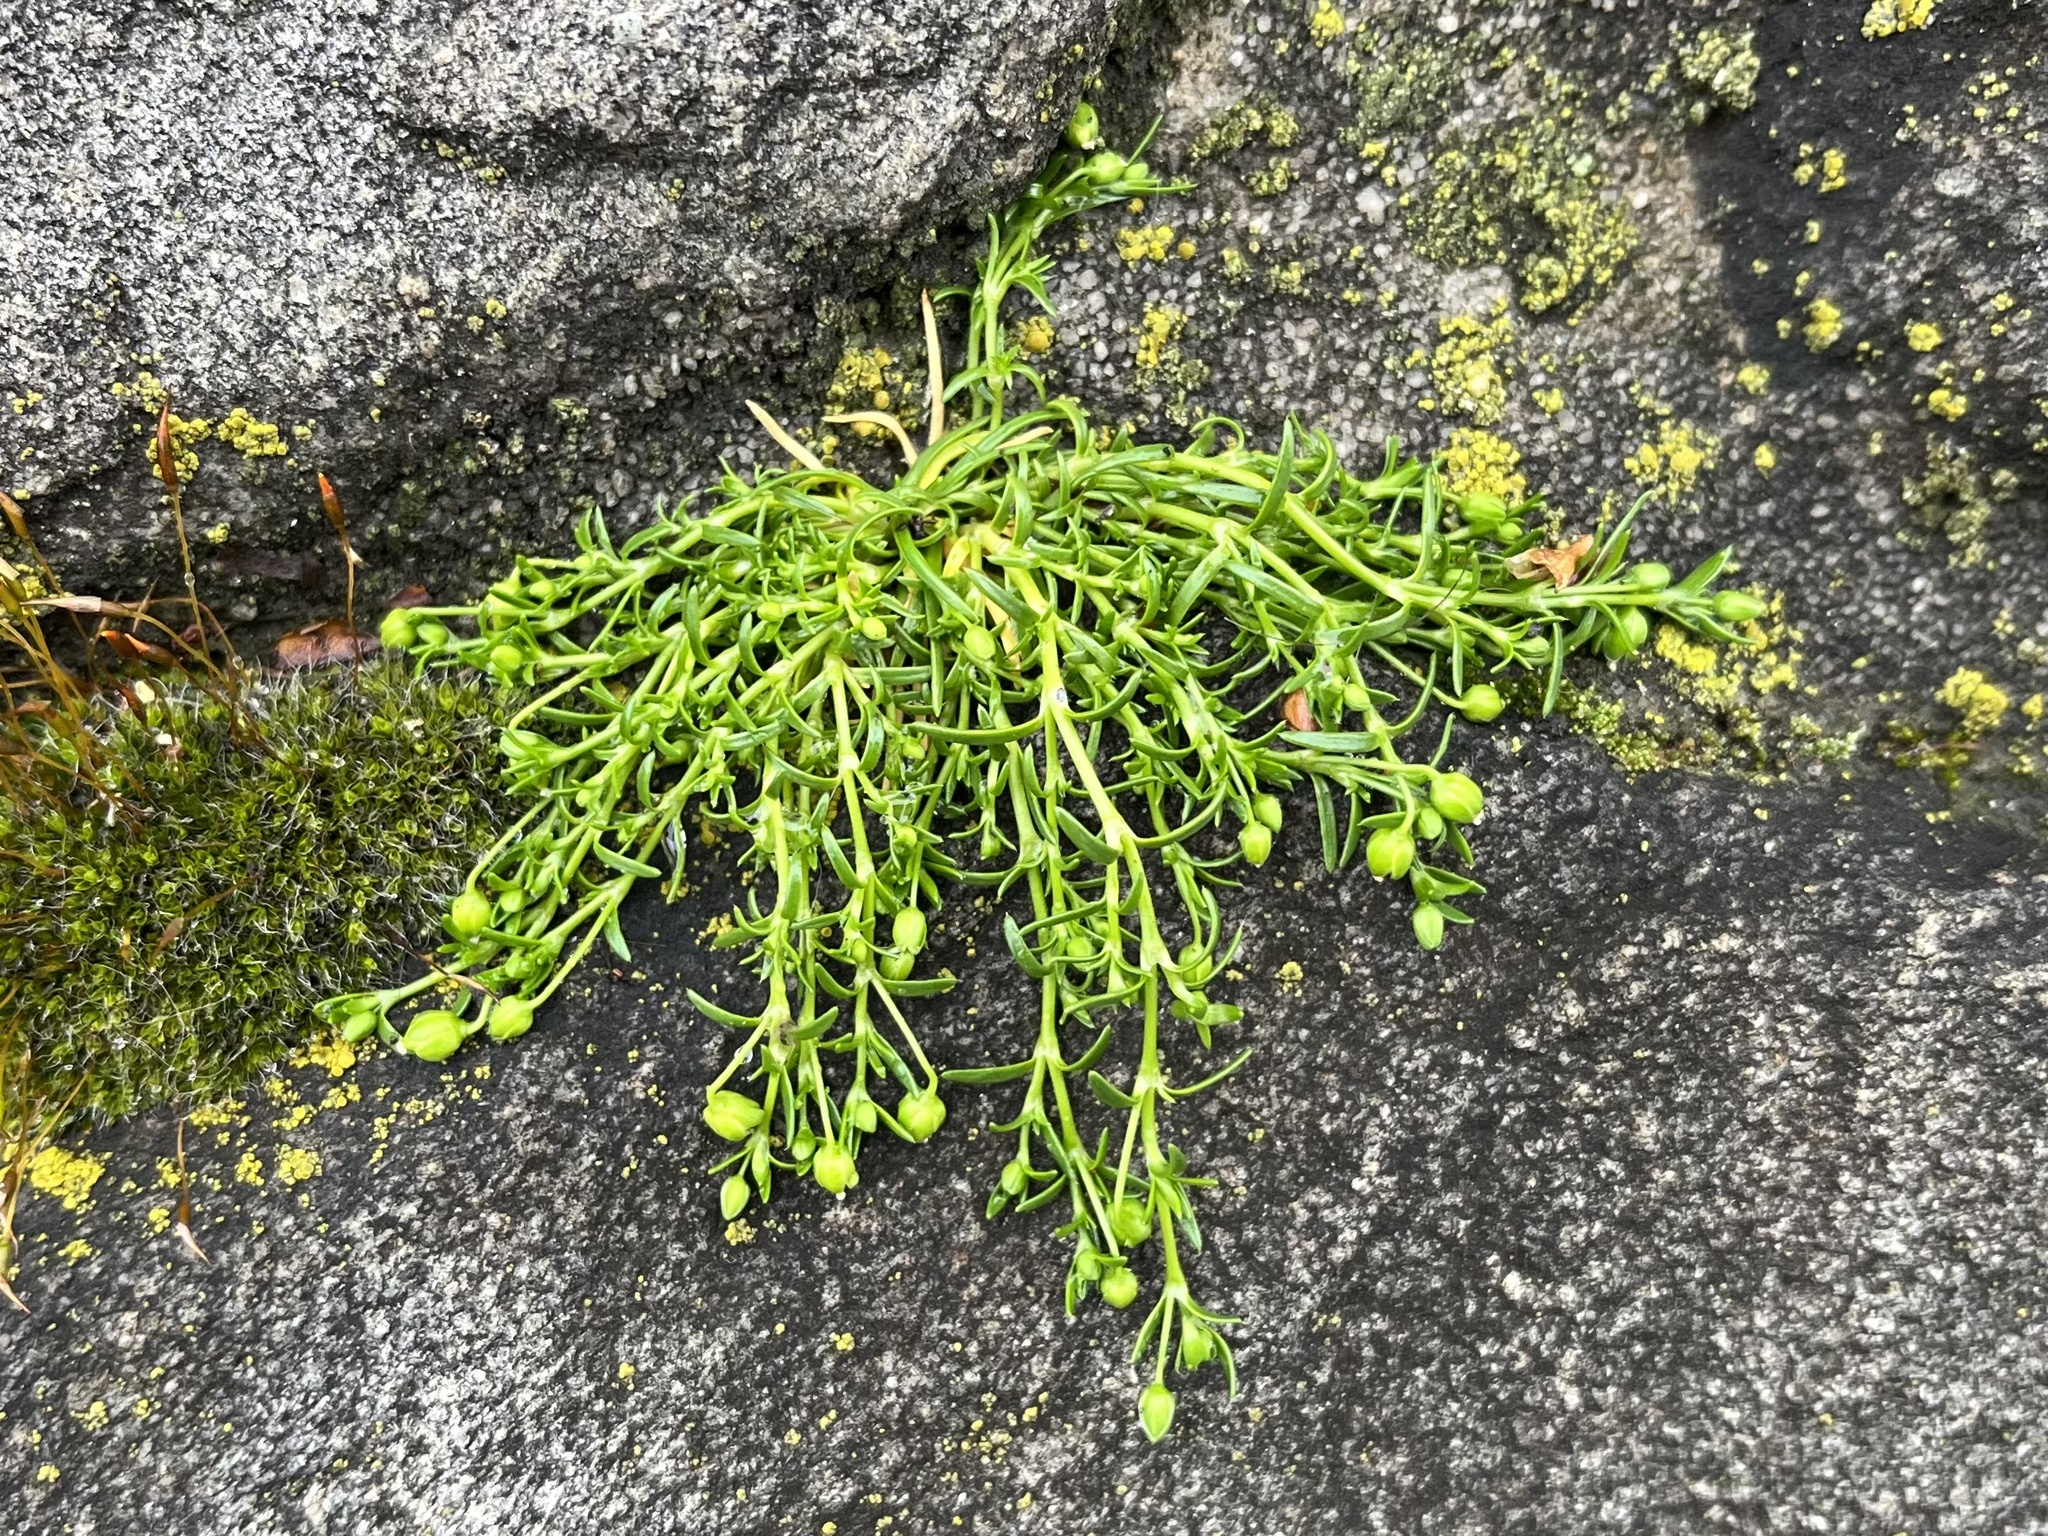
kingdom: Plantae
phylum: Tracheophyta
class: Magnoliopsida
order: Caryophyllales
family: Caryophyllaceae
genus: Sagina
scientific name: Sagina procumbens
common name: Procumbent pearlwort
